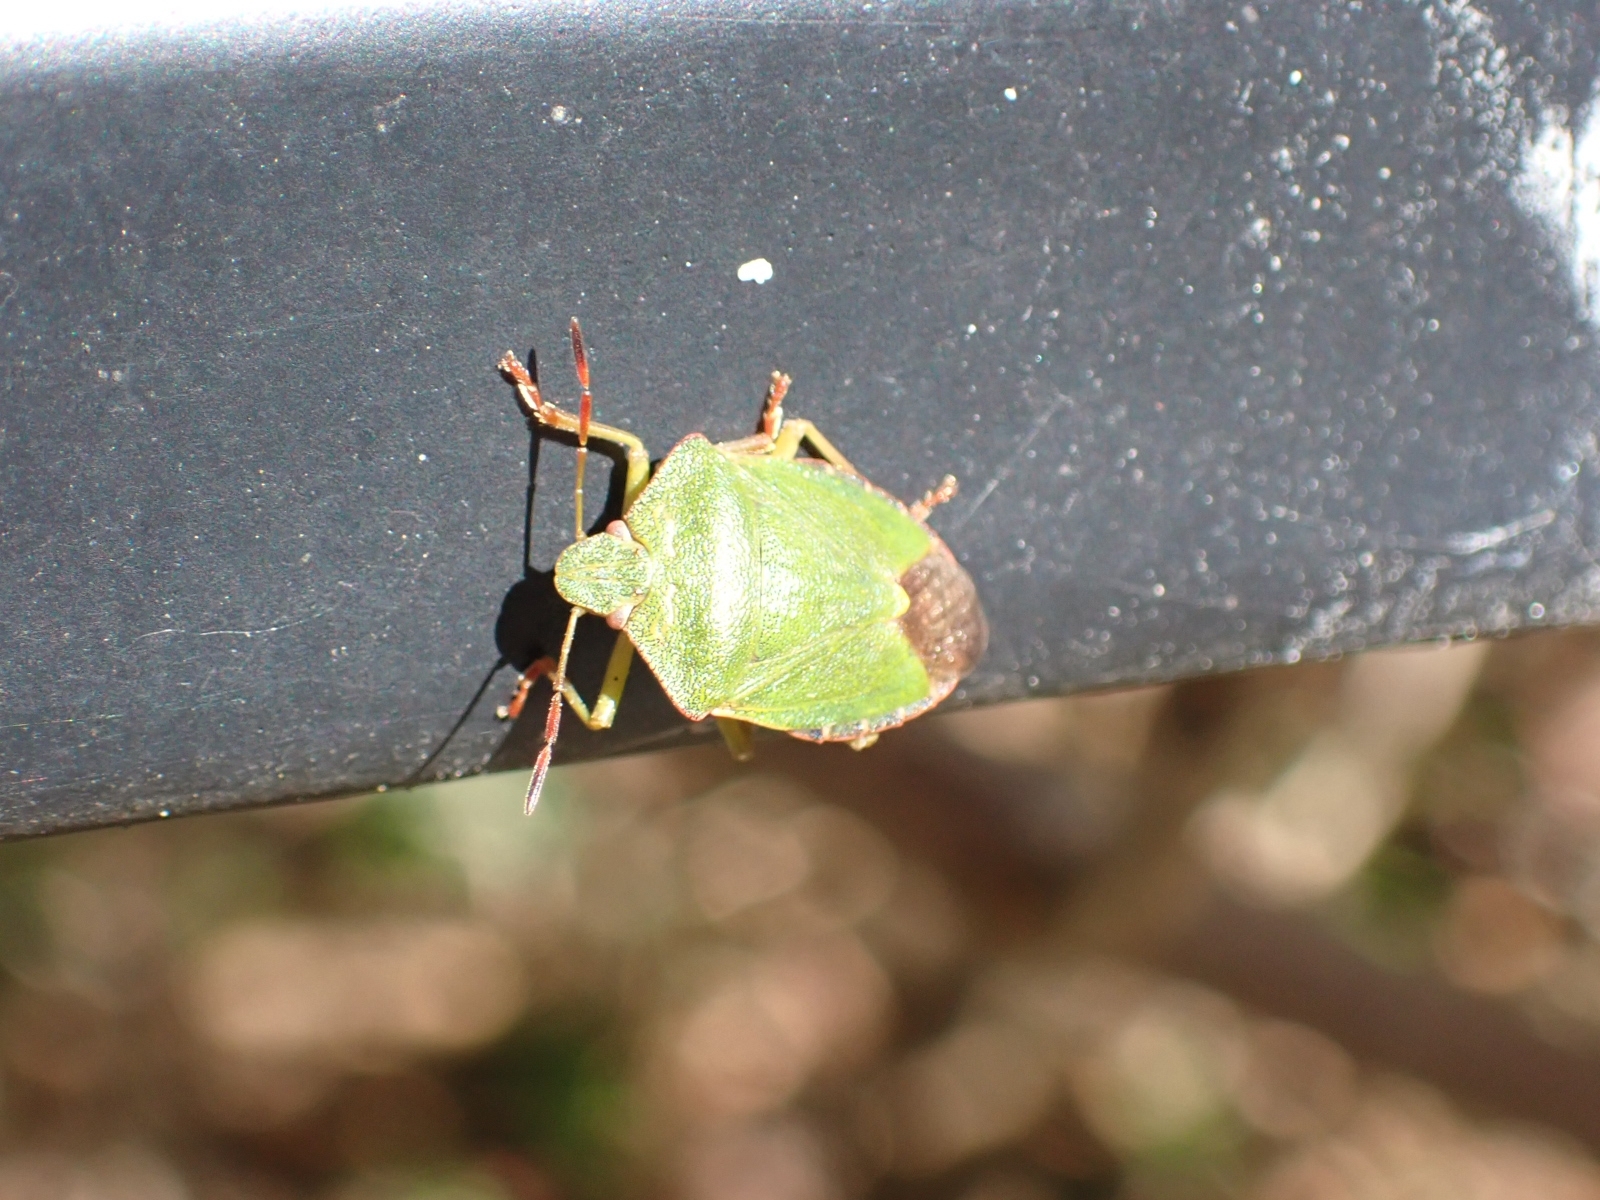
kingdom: Animalia
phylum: Arthropoda
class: Insecta
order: Hemiptera
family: Pentatomidae
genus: Palomena
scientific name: Palomena prasina
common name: Green shieldbug
